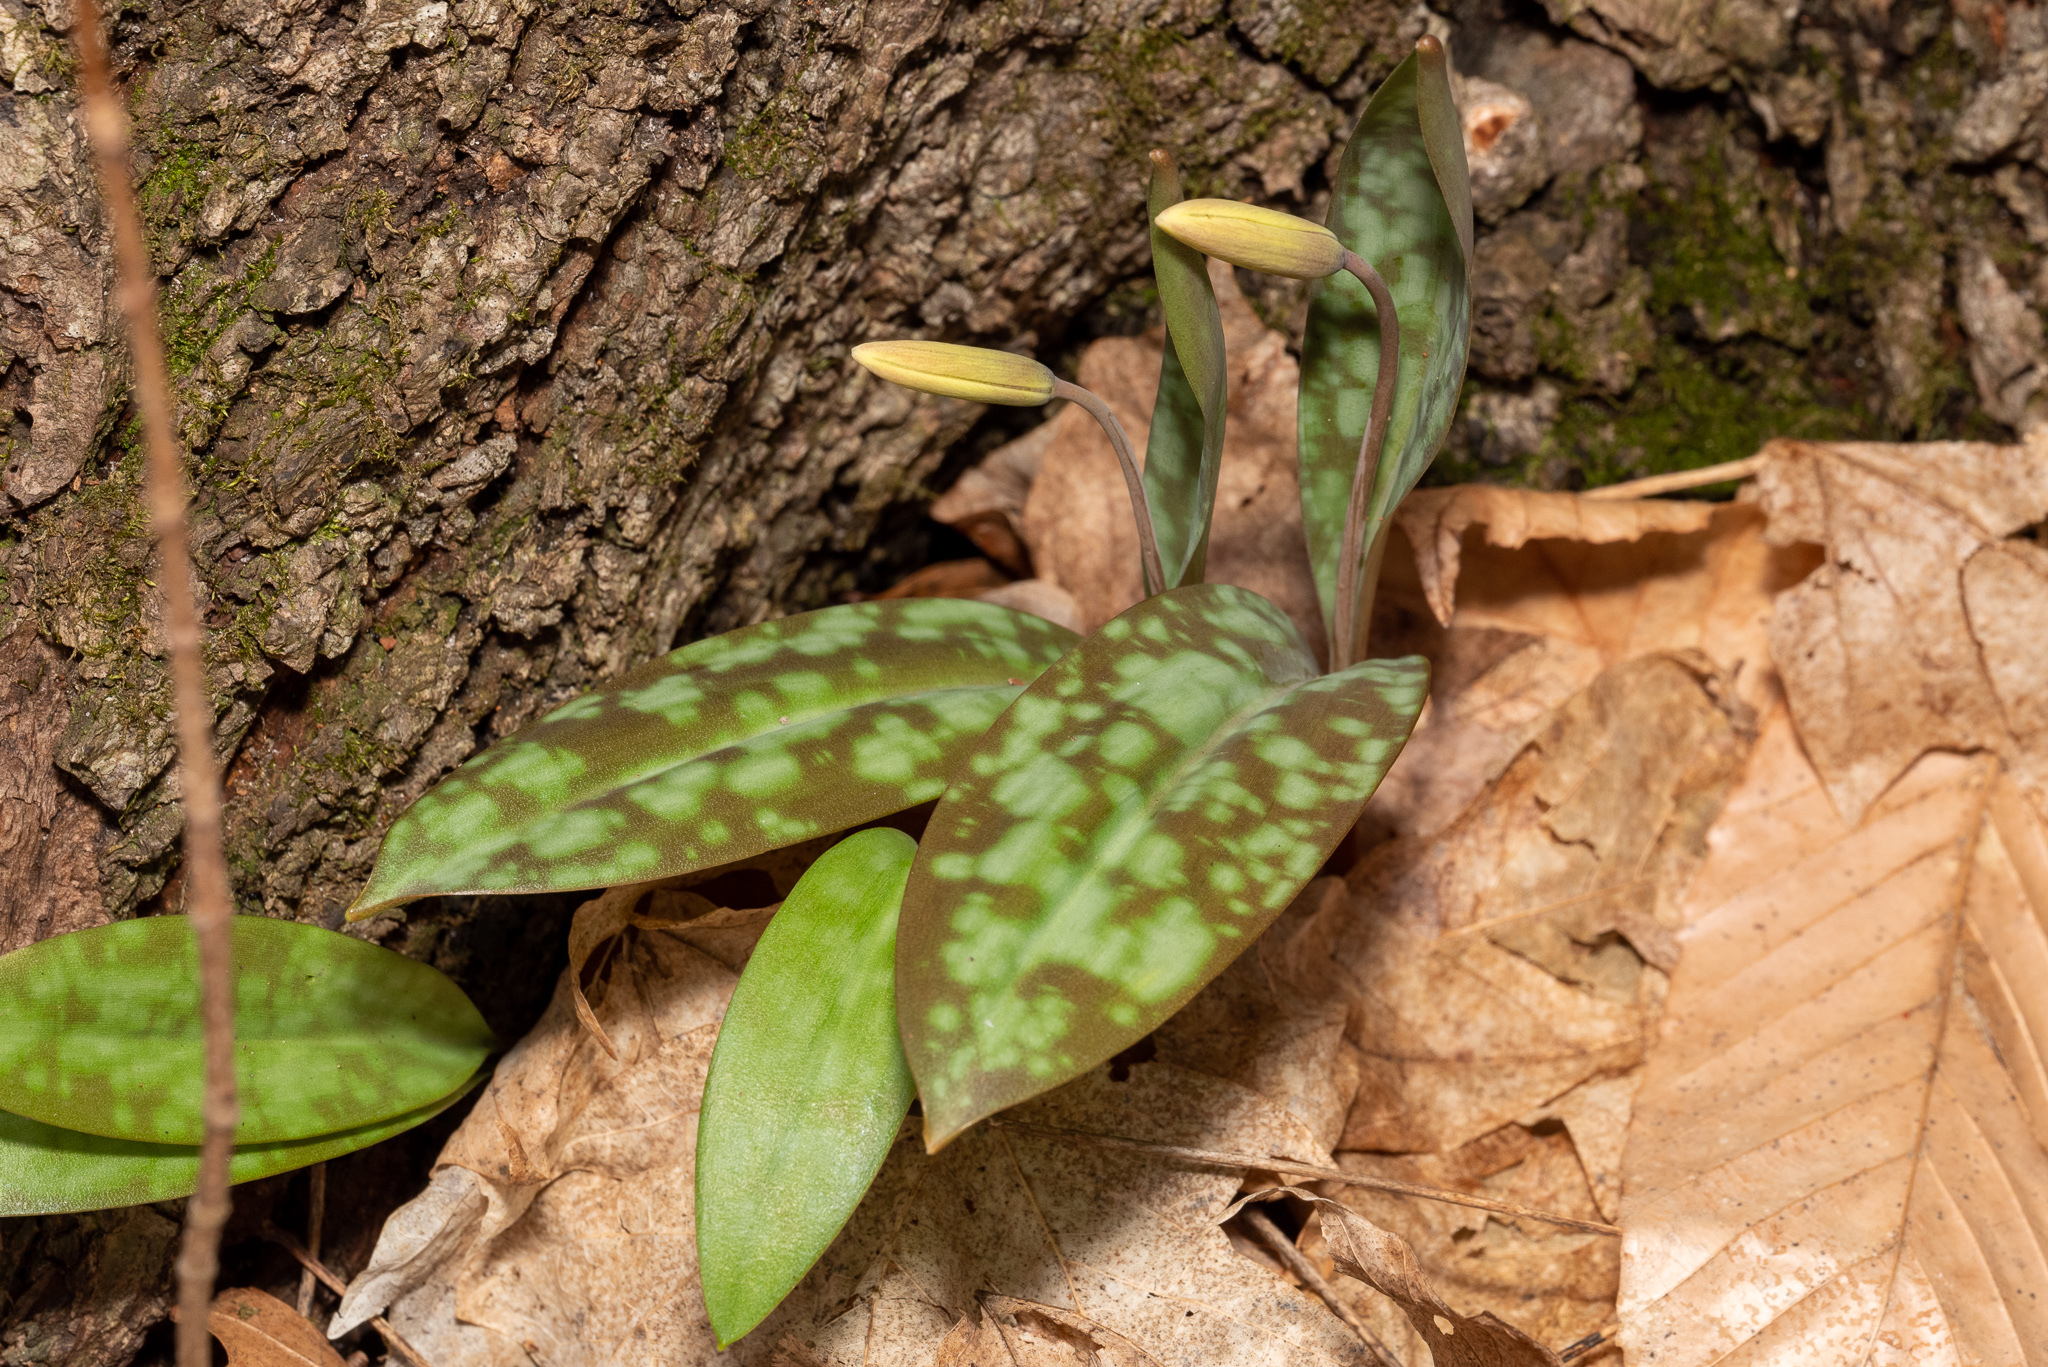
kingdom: Plantae
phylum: Tracheophyta
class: Liliopsida
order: Liliales
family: Liliaceae
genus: Erythronium
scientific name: Erythronium americanum
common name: Yellow adder's-tongue
